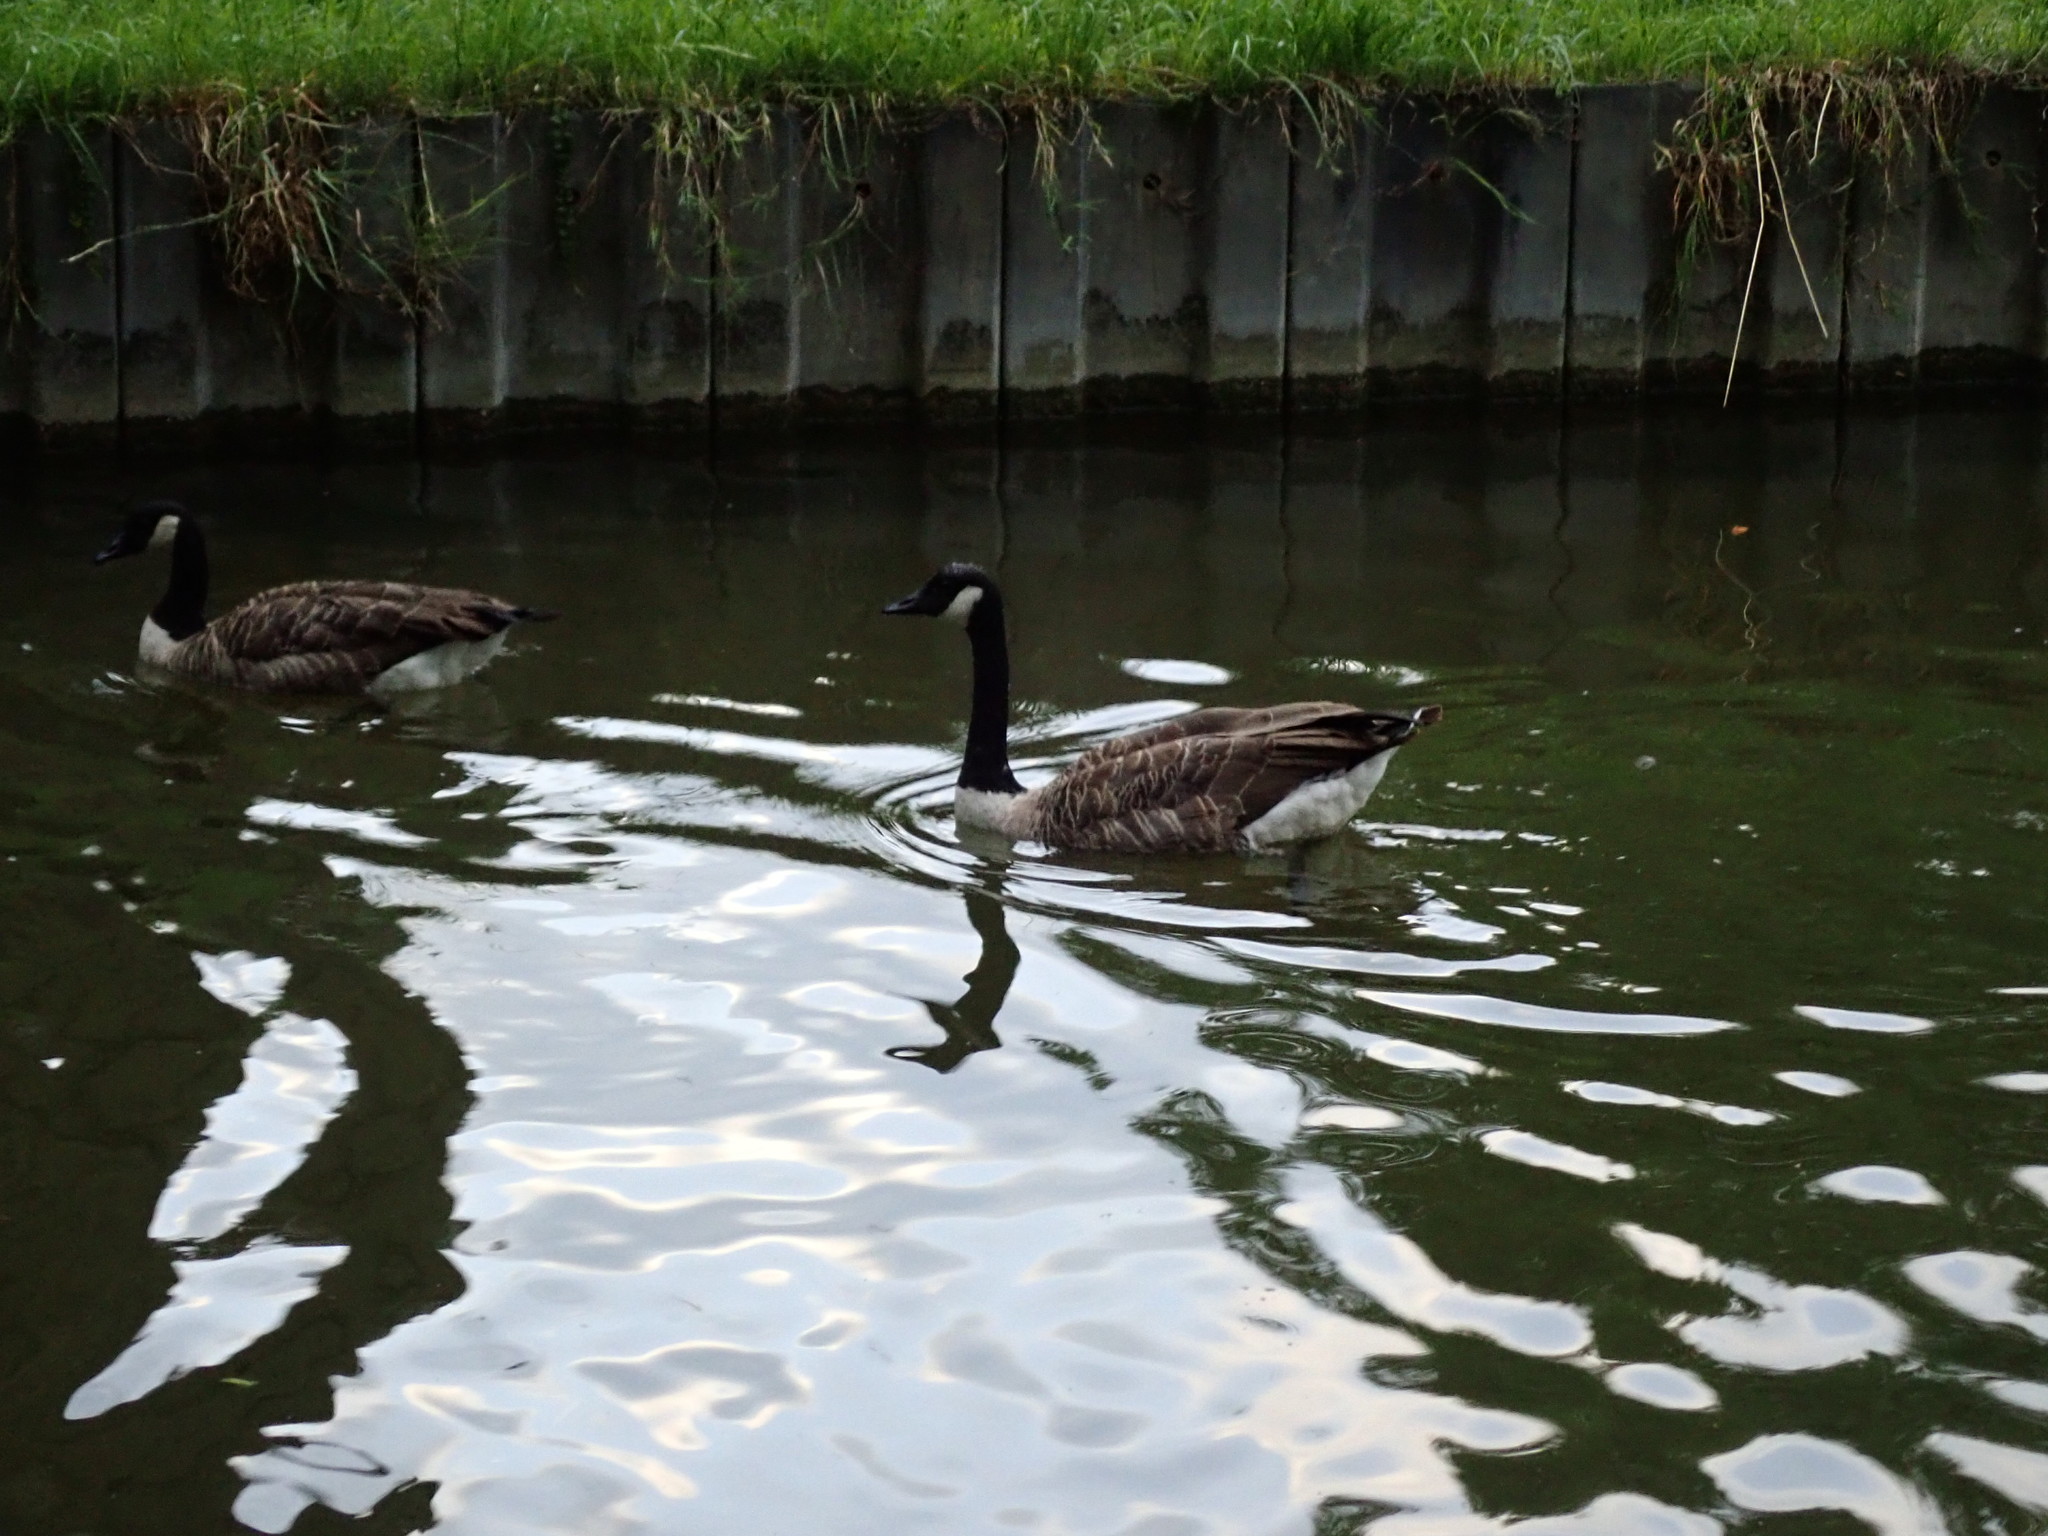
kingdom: Animalia
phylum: Chordata
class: Aves
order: Anseriformes
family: Anatidae
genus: Branta
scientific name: Branta canadensis
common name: Canada goose
